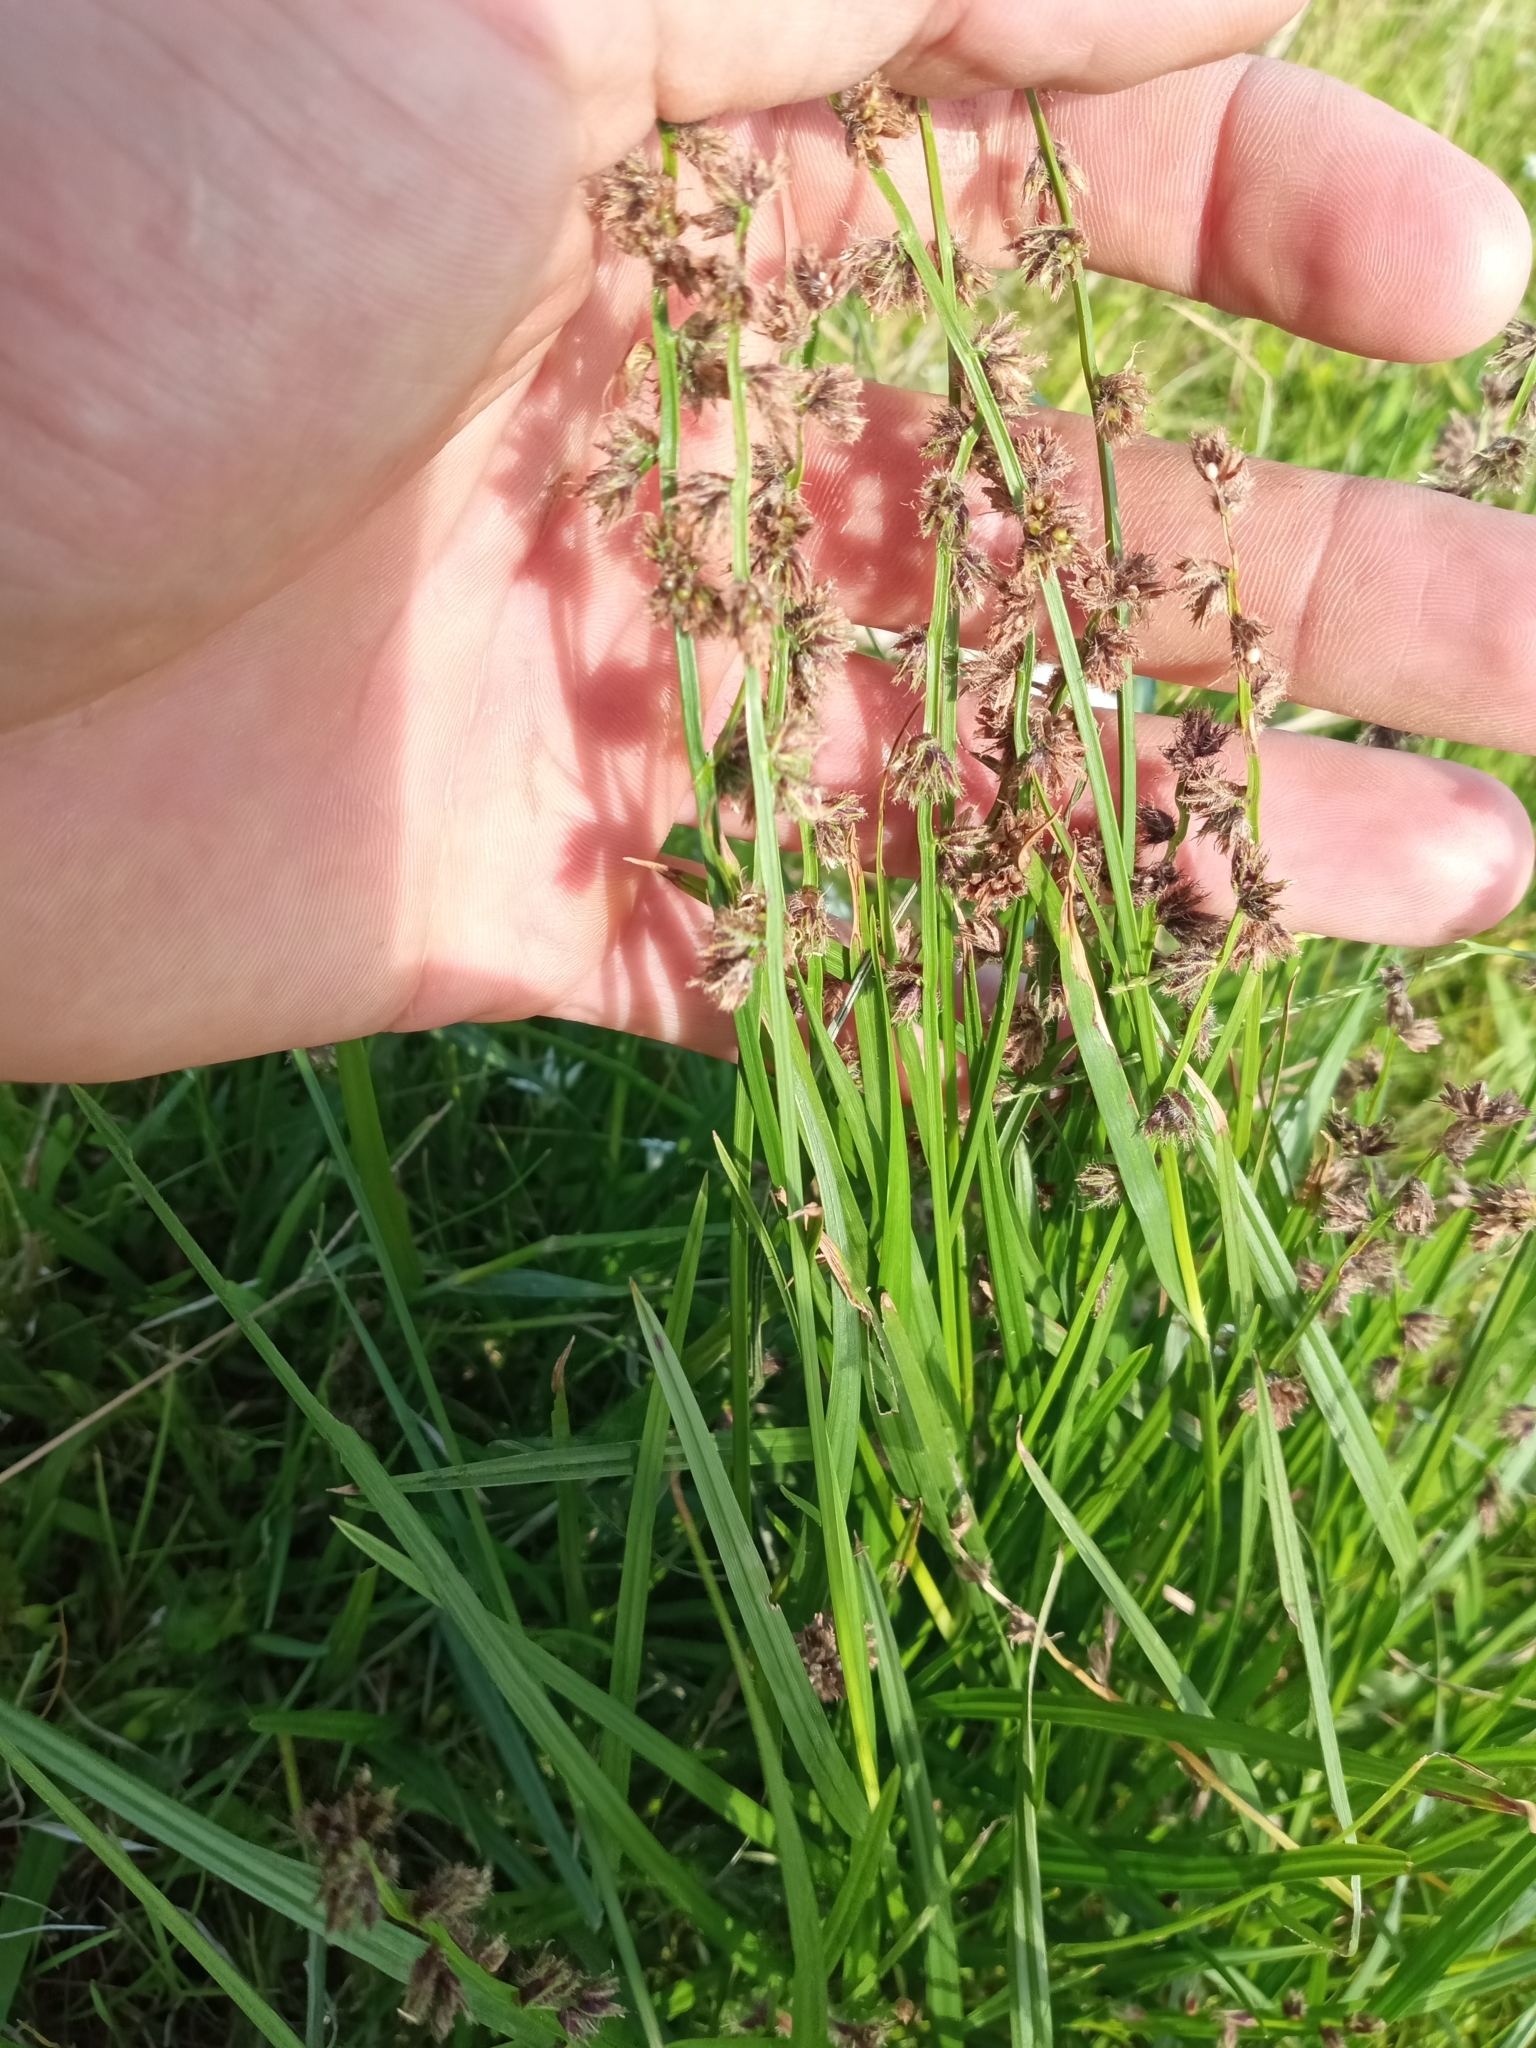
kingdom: Plantae
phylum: Tracheophyta
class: Liliopsida
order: Poales
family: Cyperaceae
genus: Scleria
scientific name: Scleria distans
